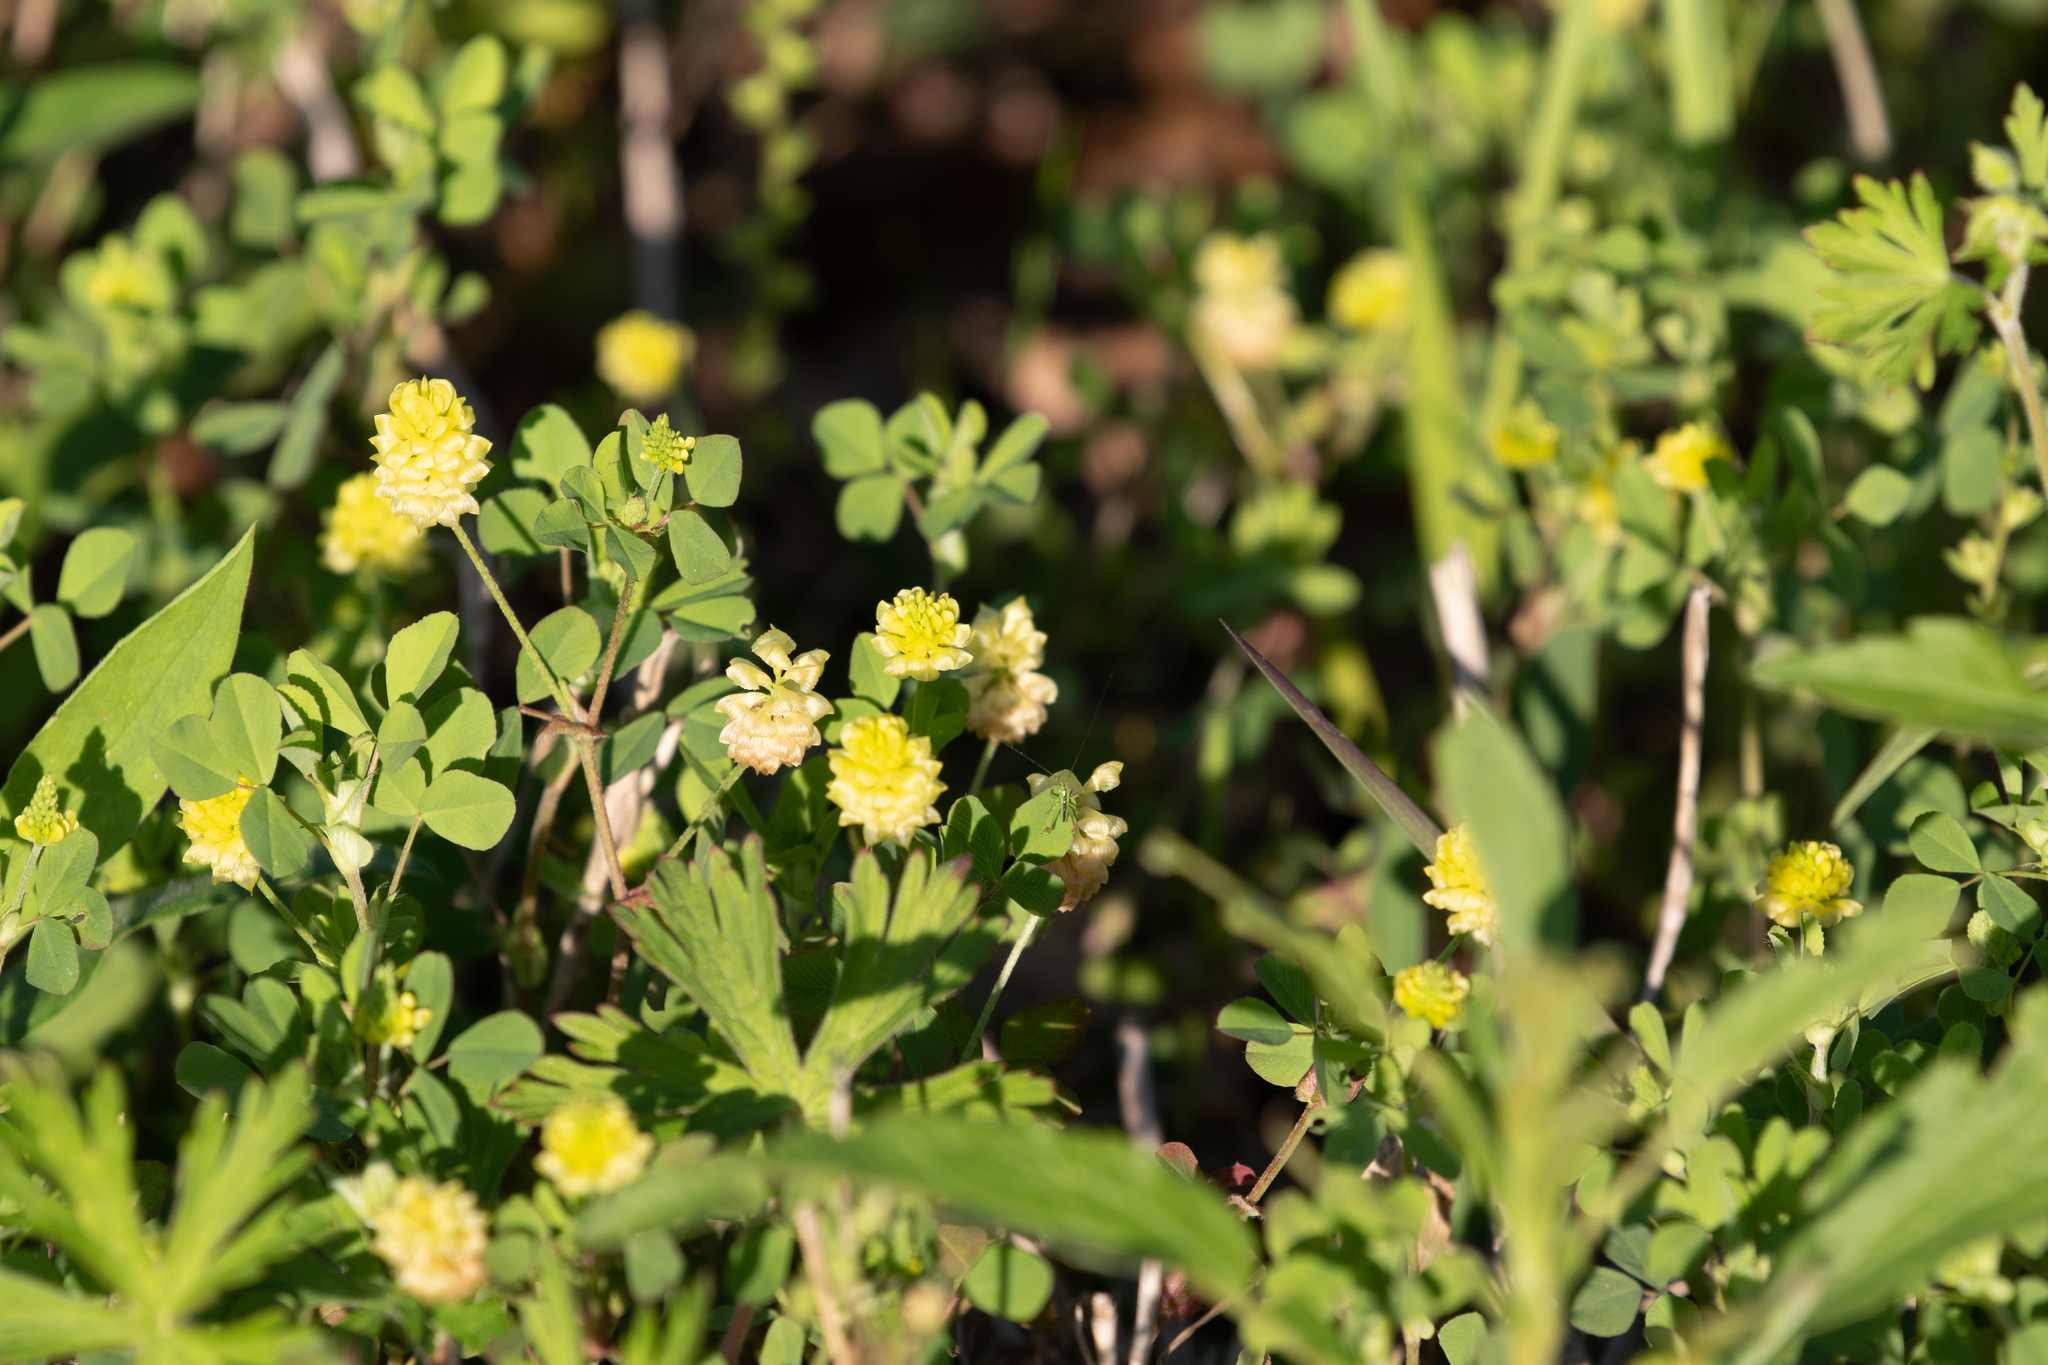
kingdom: Plantae
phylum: Tracheophyta
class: Magnoliopsida
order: Fabales
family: Fabaceae
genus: Trifolium
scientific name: Trifolium campestre
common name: Field clover
